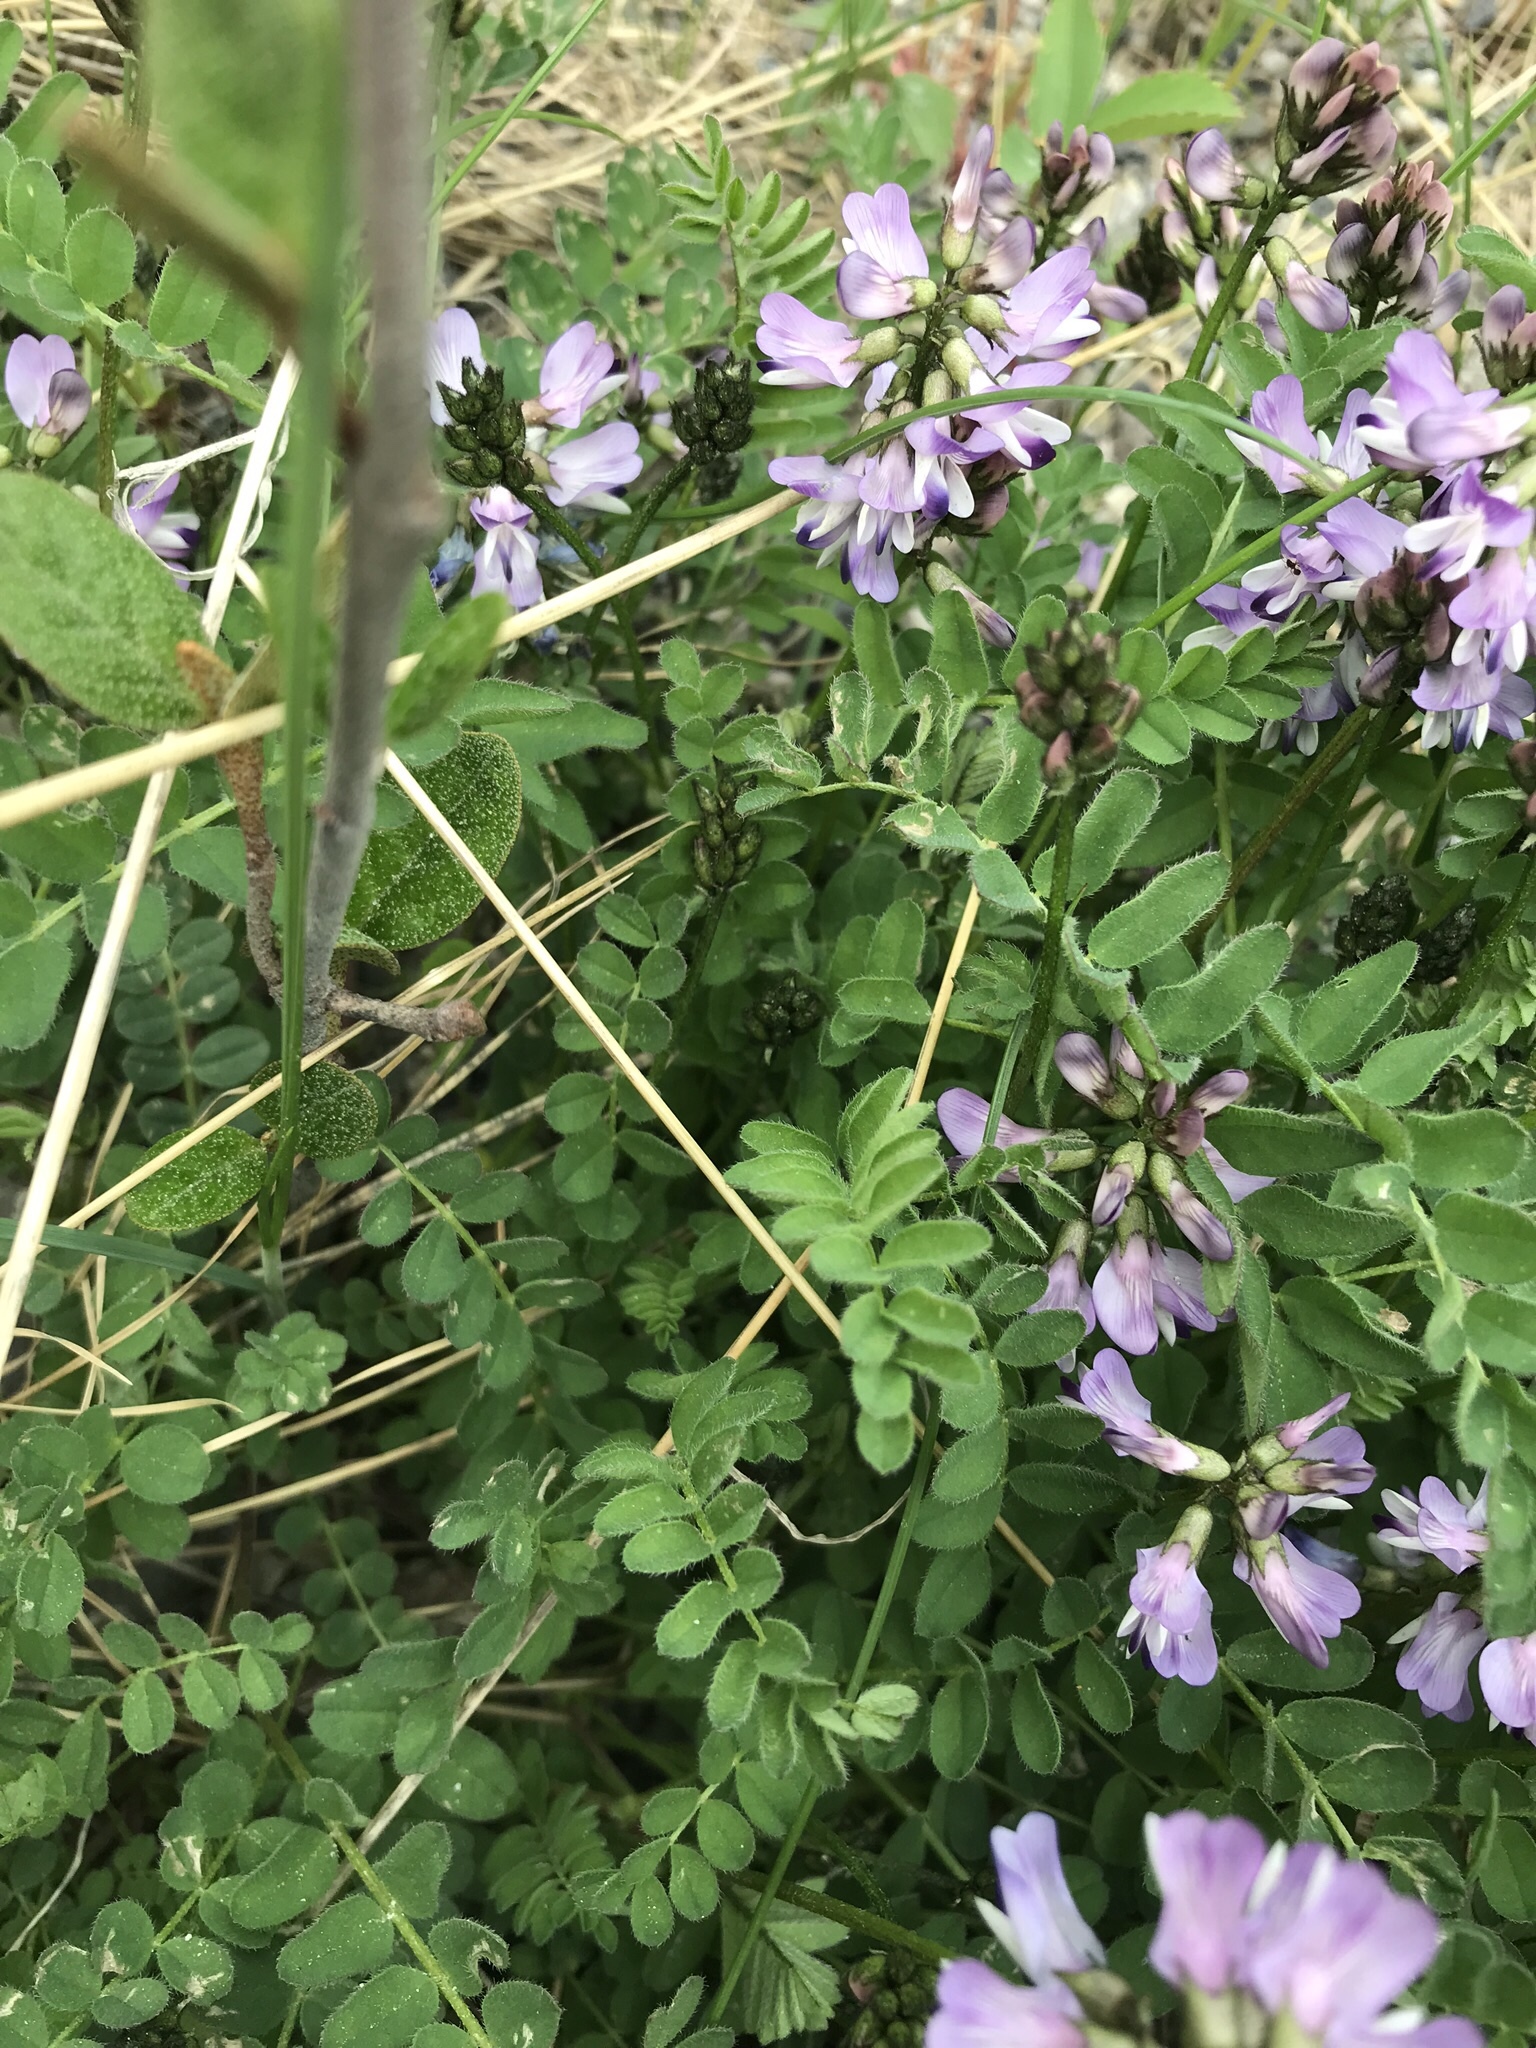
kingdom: Plantae
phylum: Tracheophyta
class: Magnoliopsida
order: Fabales
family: Fabaceae
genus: Astragalus
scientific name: Astragalus alpinus
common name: Alpine milk-vetch
